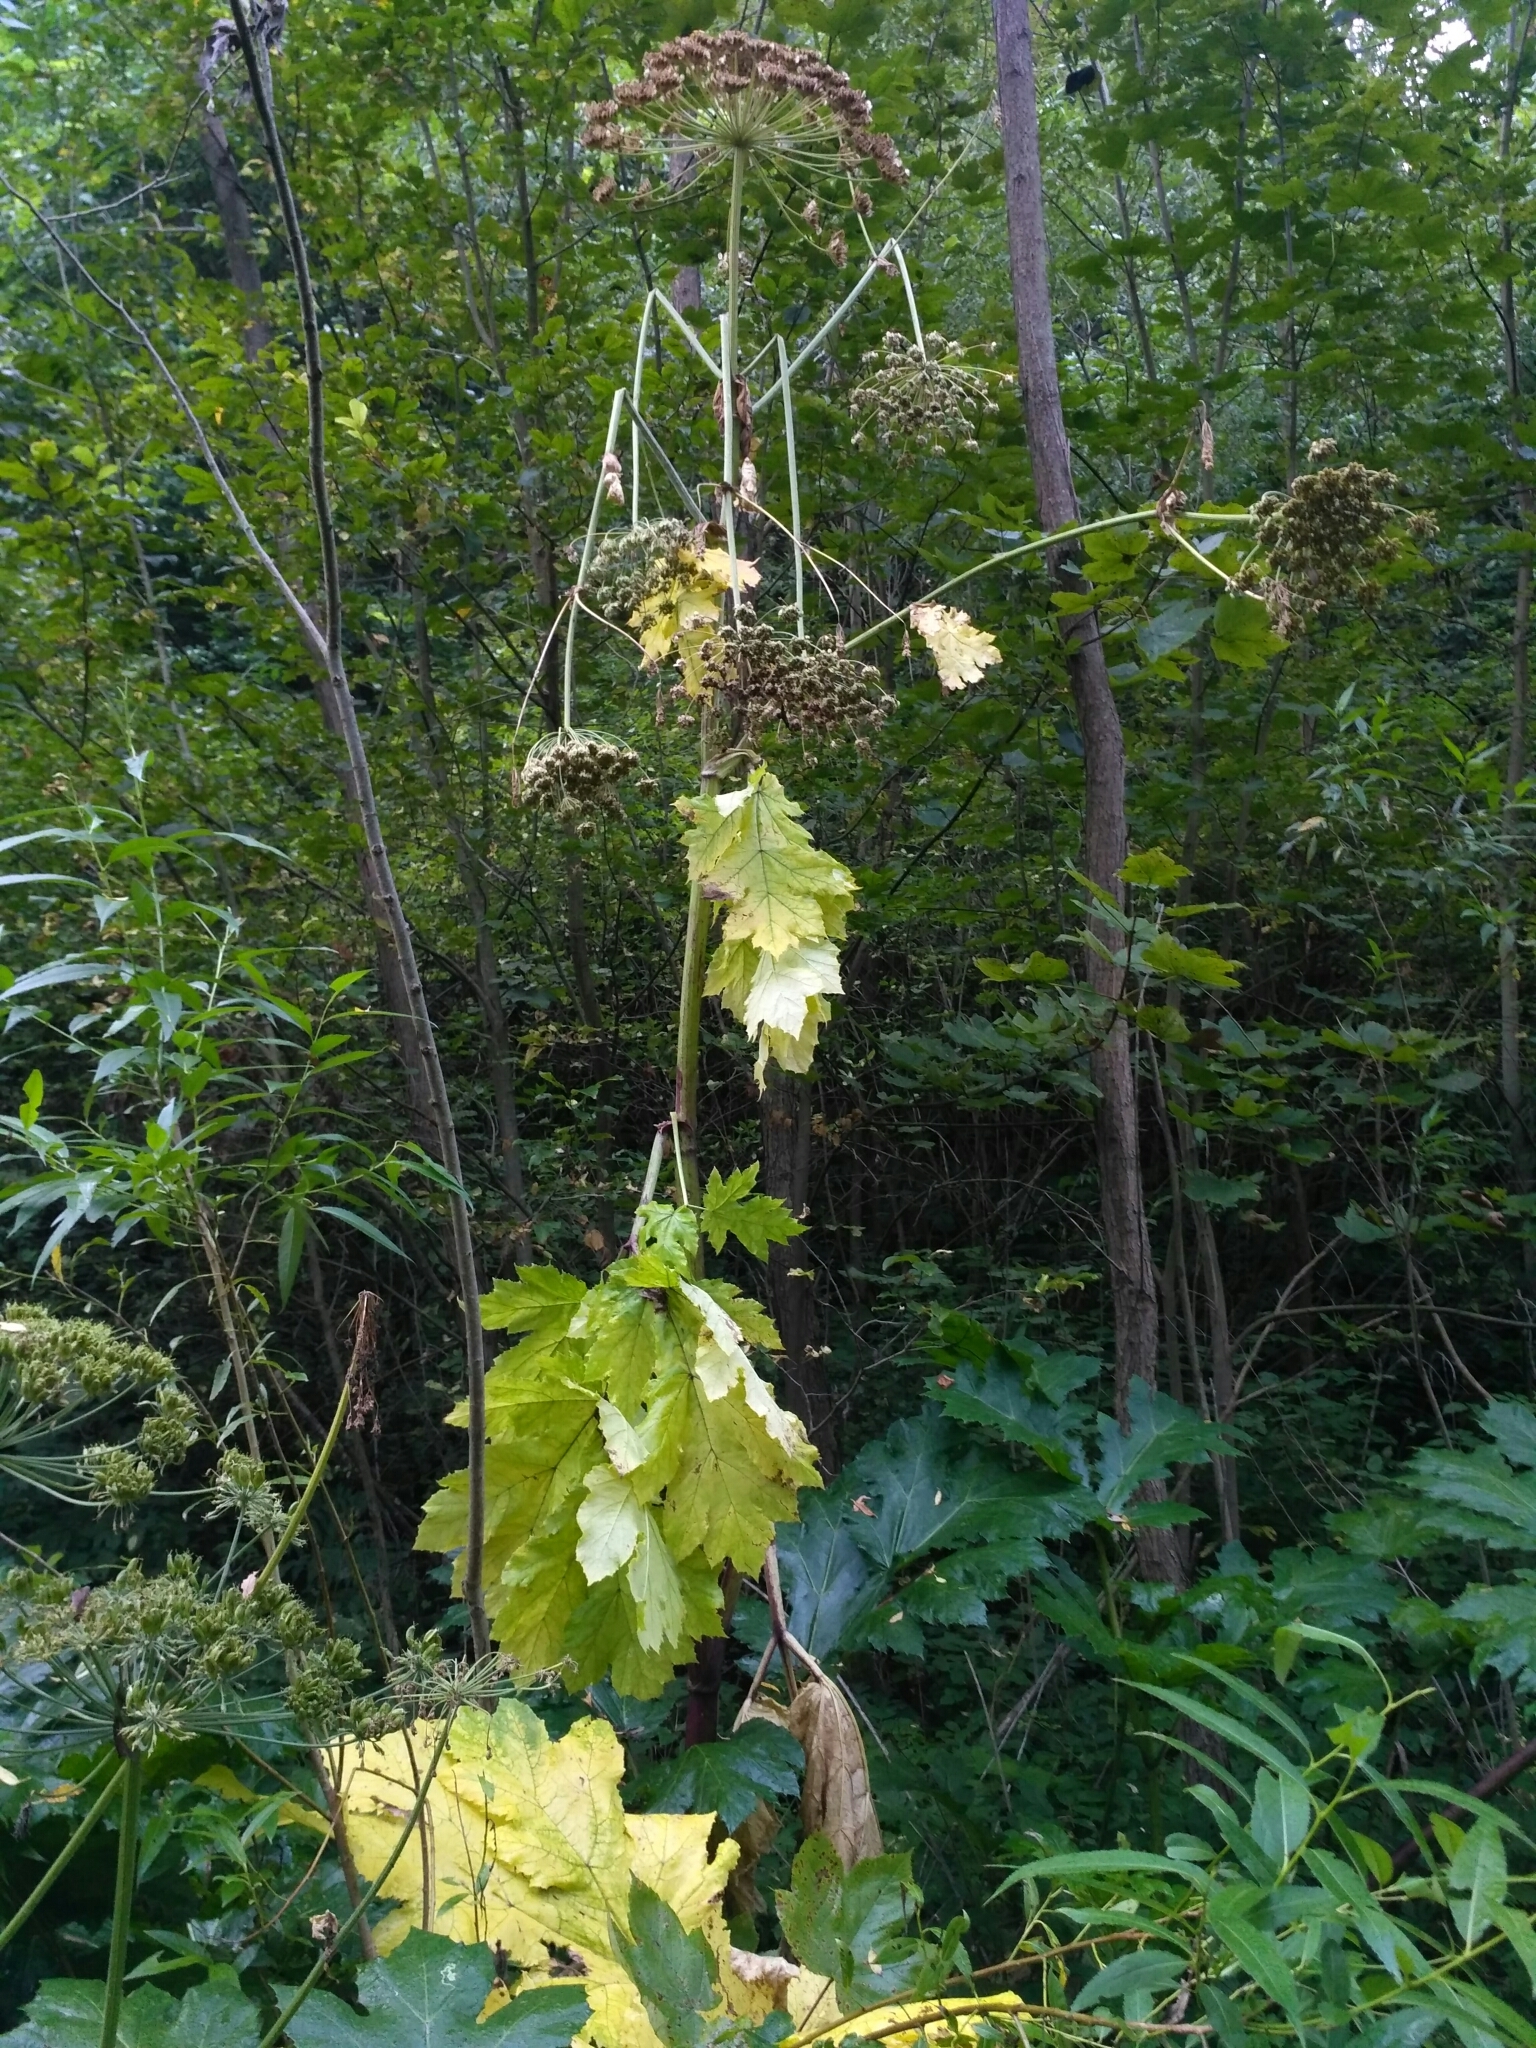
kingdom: Plantae
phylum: Tracheophyta
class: Magnoliopsida
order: Apiales
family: Apiaceae
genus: Heracleum
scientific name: Heracleum sosnowskyi
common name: Sosnowsky's hogweed
